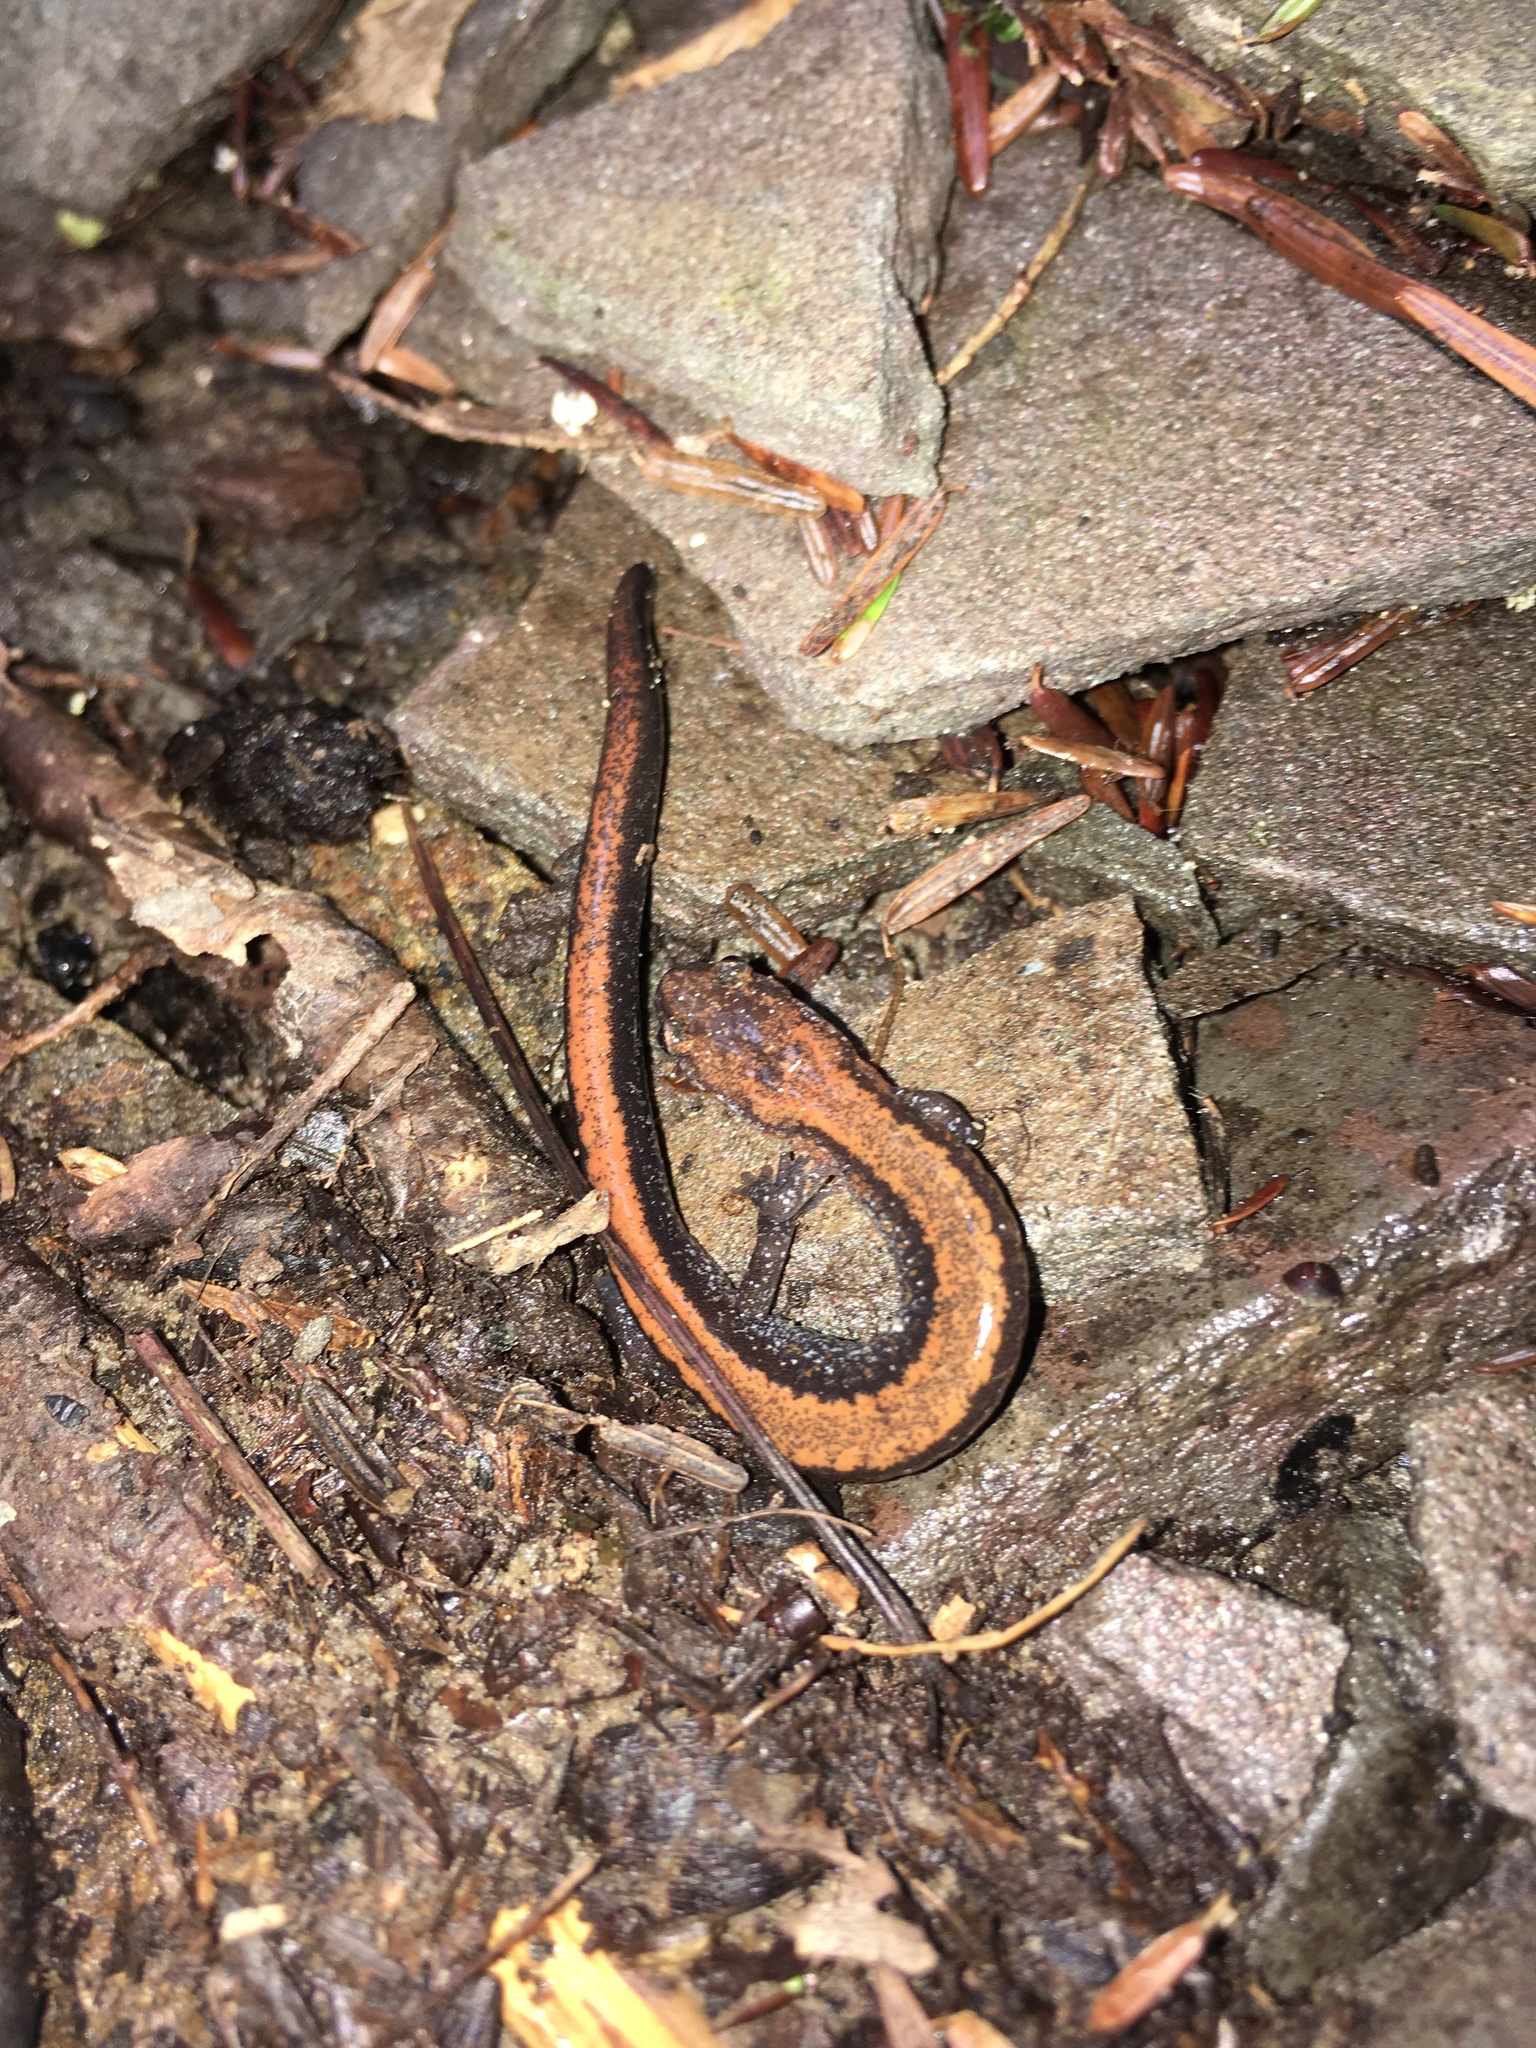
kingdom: Animalia
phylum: Chordata
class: Amphibia
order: Caudata
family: Plethodontidae
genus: Plethodon
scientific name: Plethodon cinereus
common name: Redback salamander
